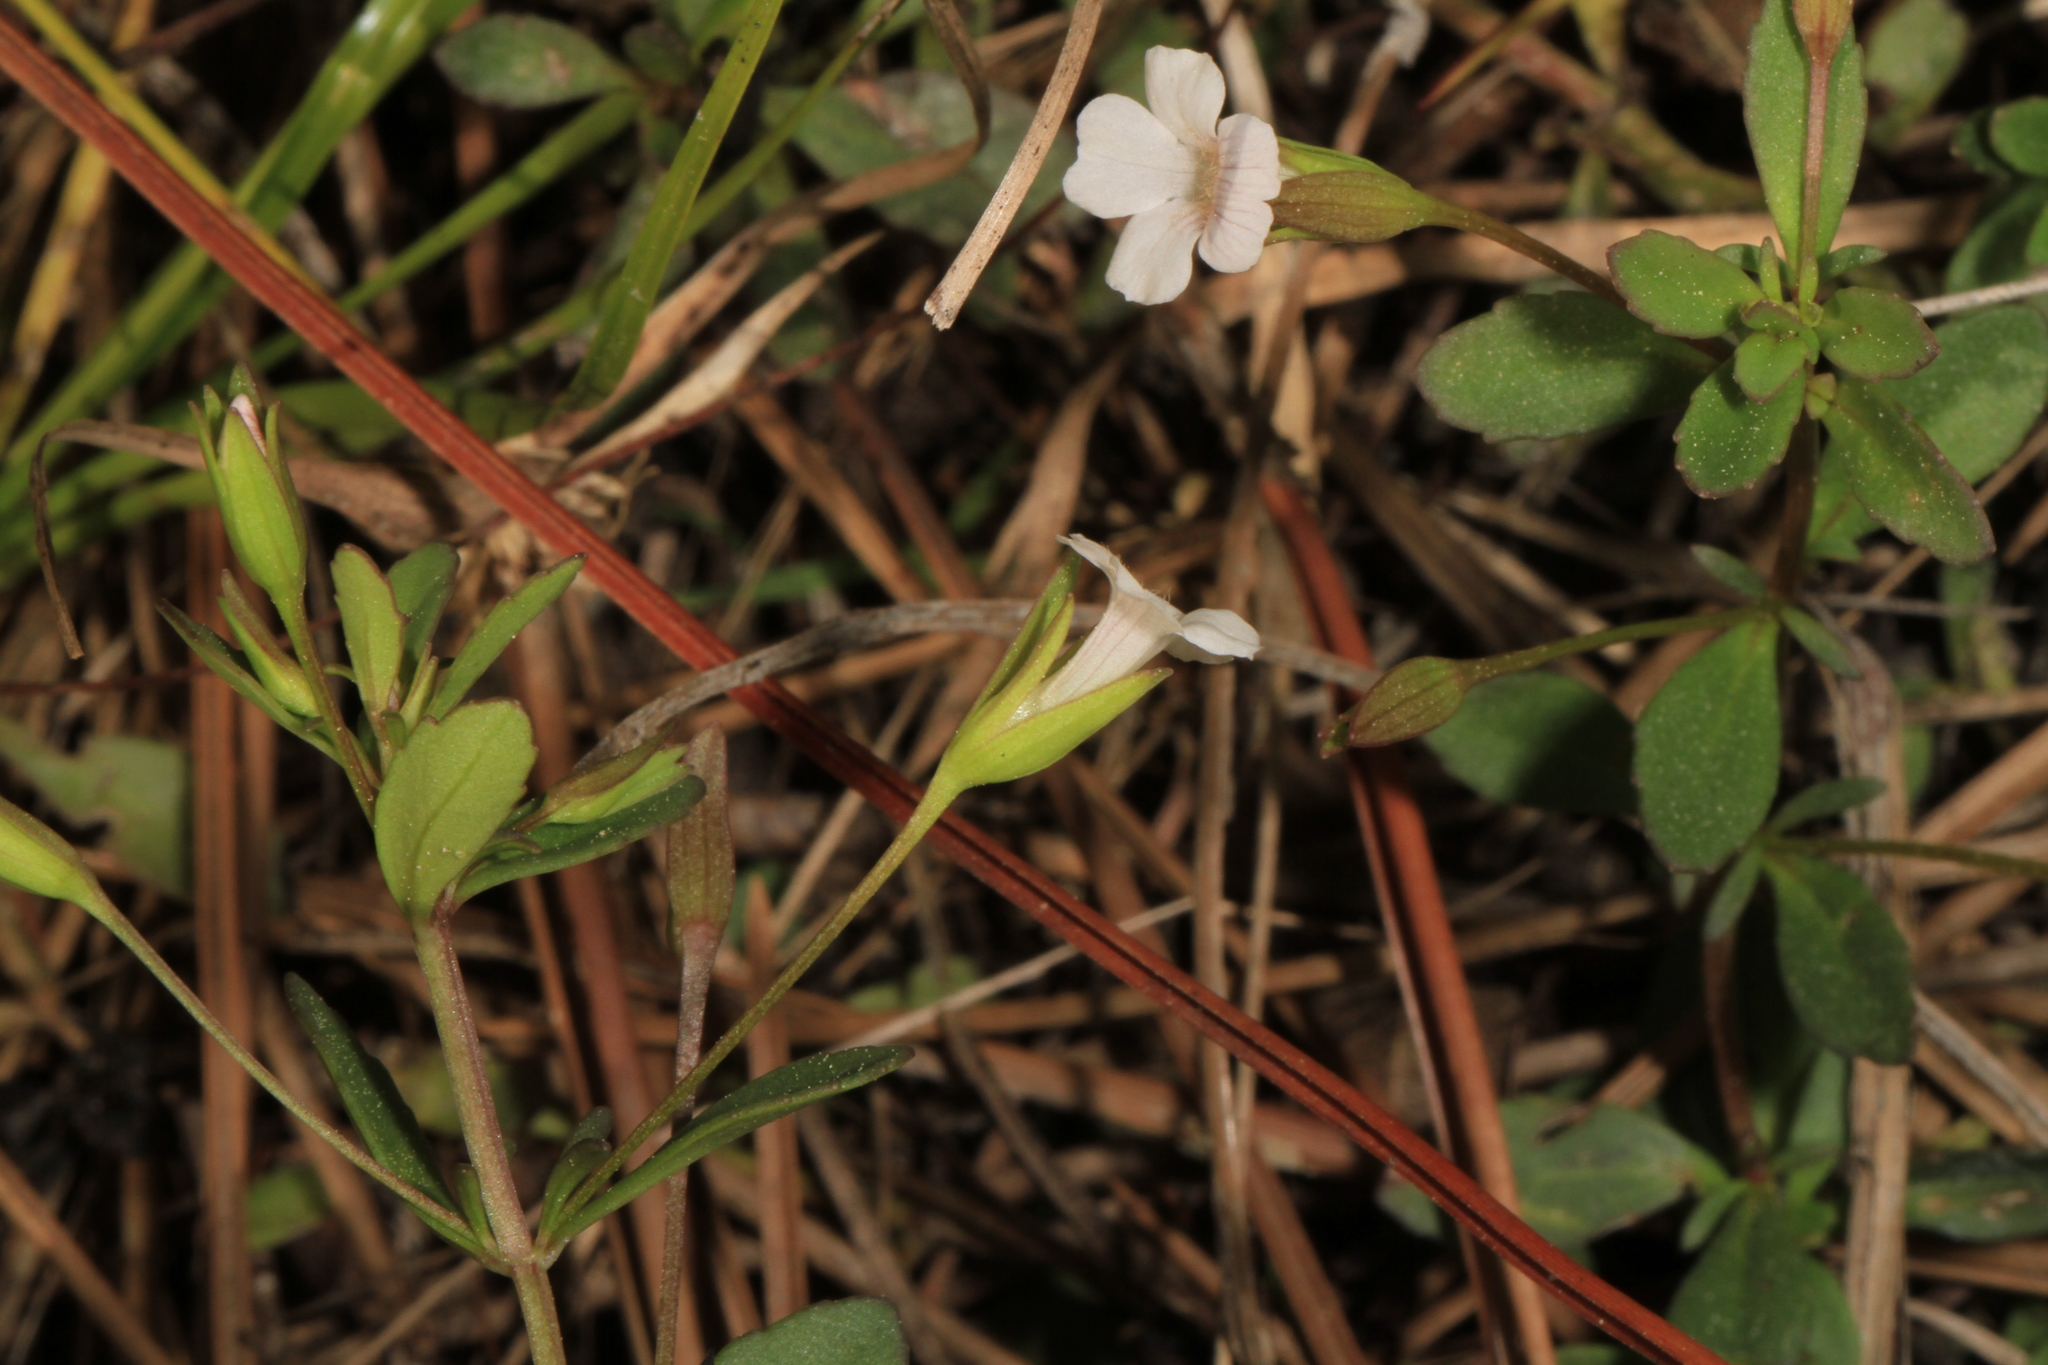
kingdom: Plantae
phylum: Tracheophyta
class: Magnoliopsida
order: Lamiales
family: Plantaginaceae
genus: Mecardonia
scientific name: Mecardonia acuminata
